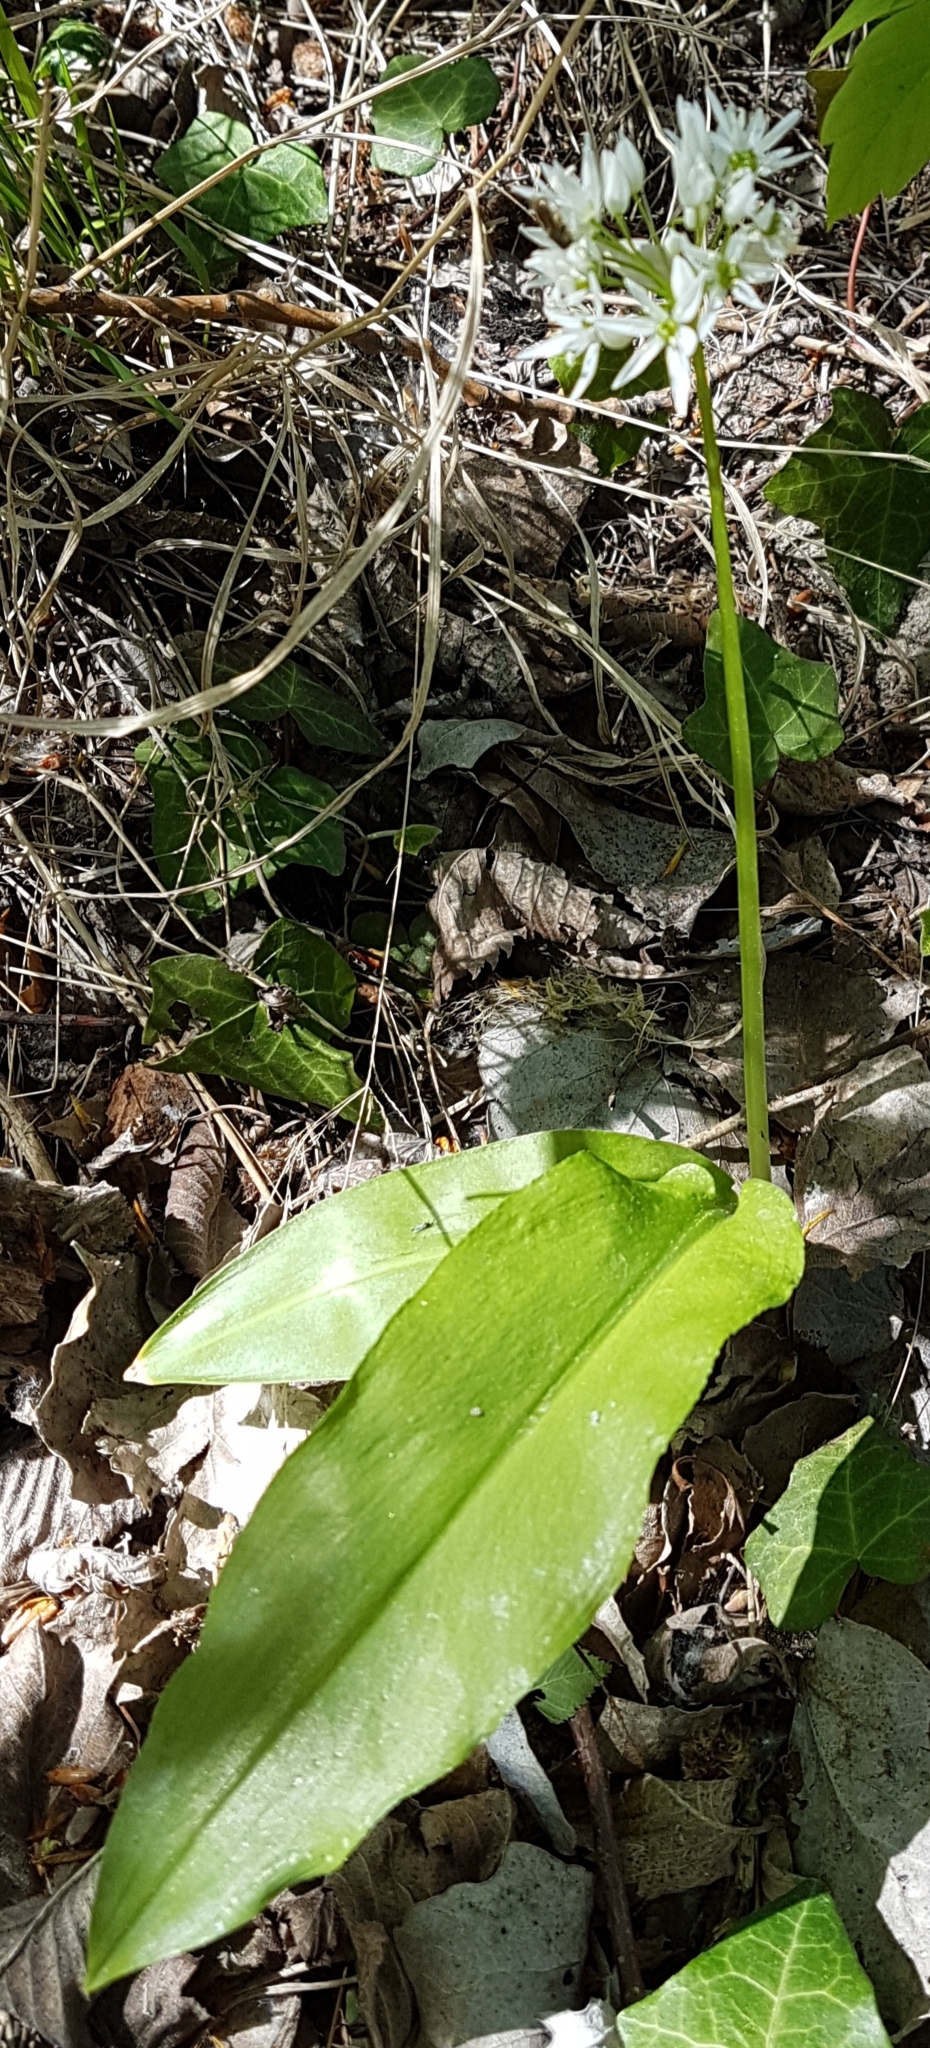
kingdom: Plantae
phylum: Tracheophyta
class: Liliopsida
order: Asparagales
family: Amaryllidaceae
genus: Allium
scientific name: Allium ursinum
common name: Ramsons
